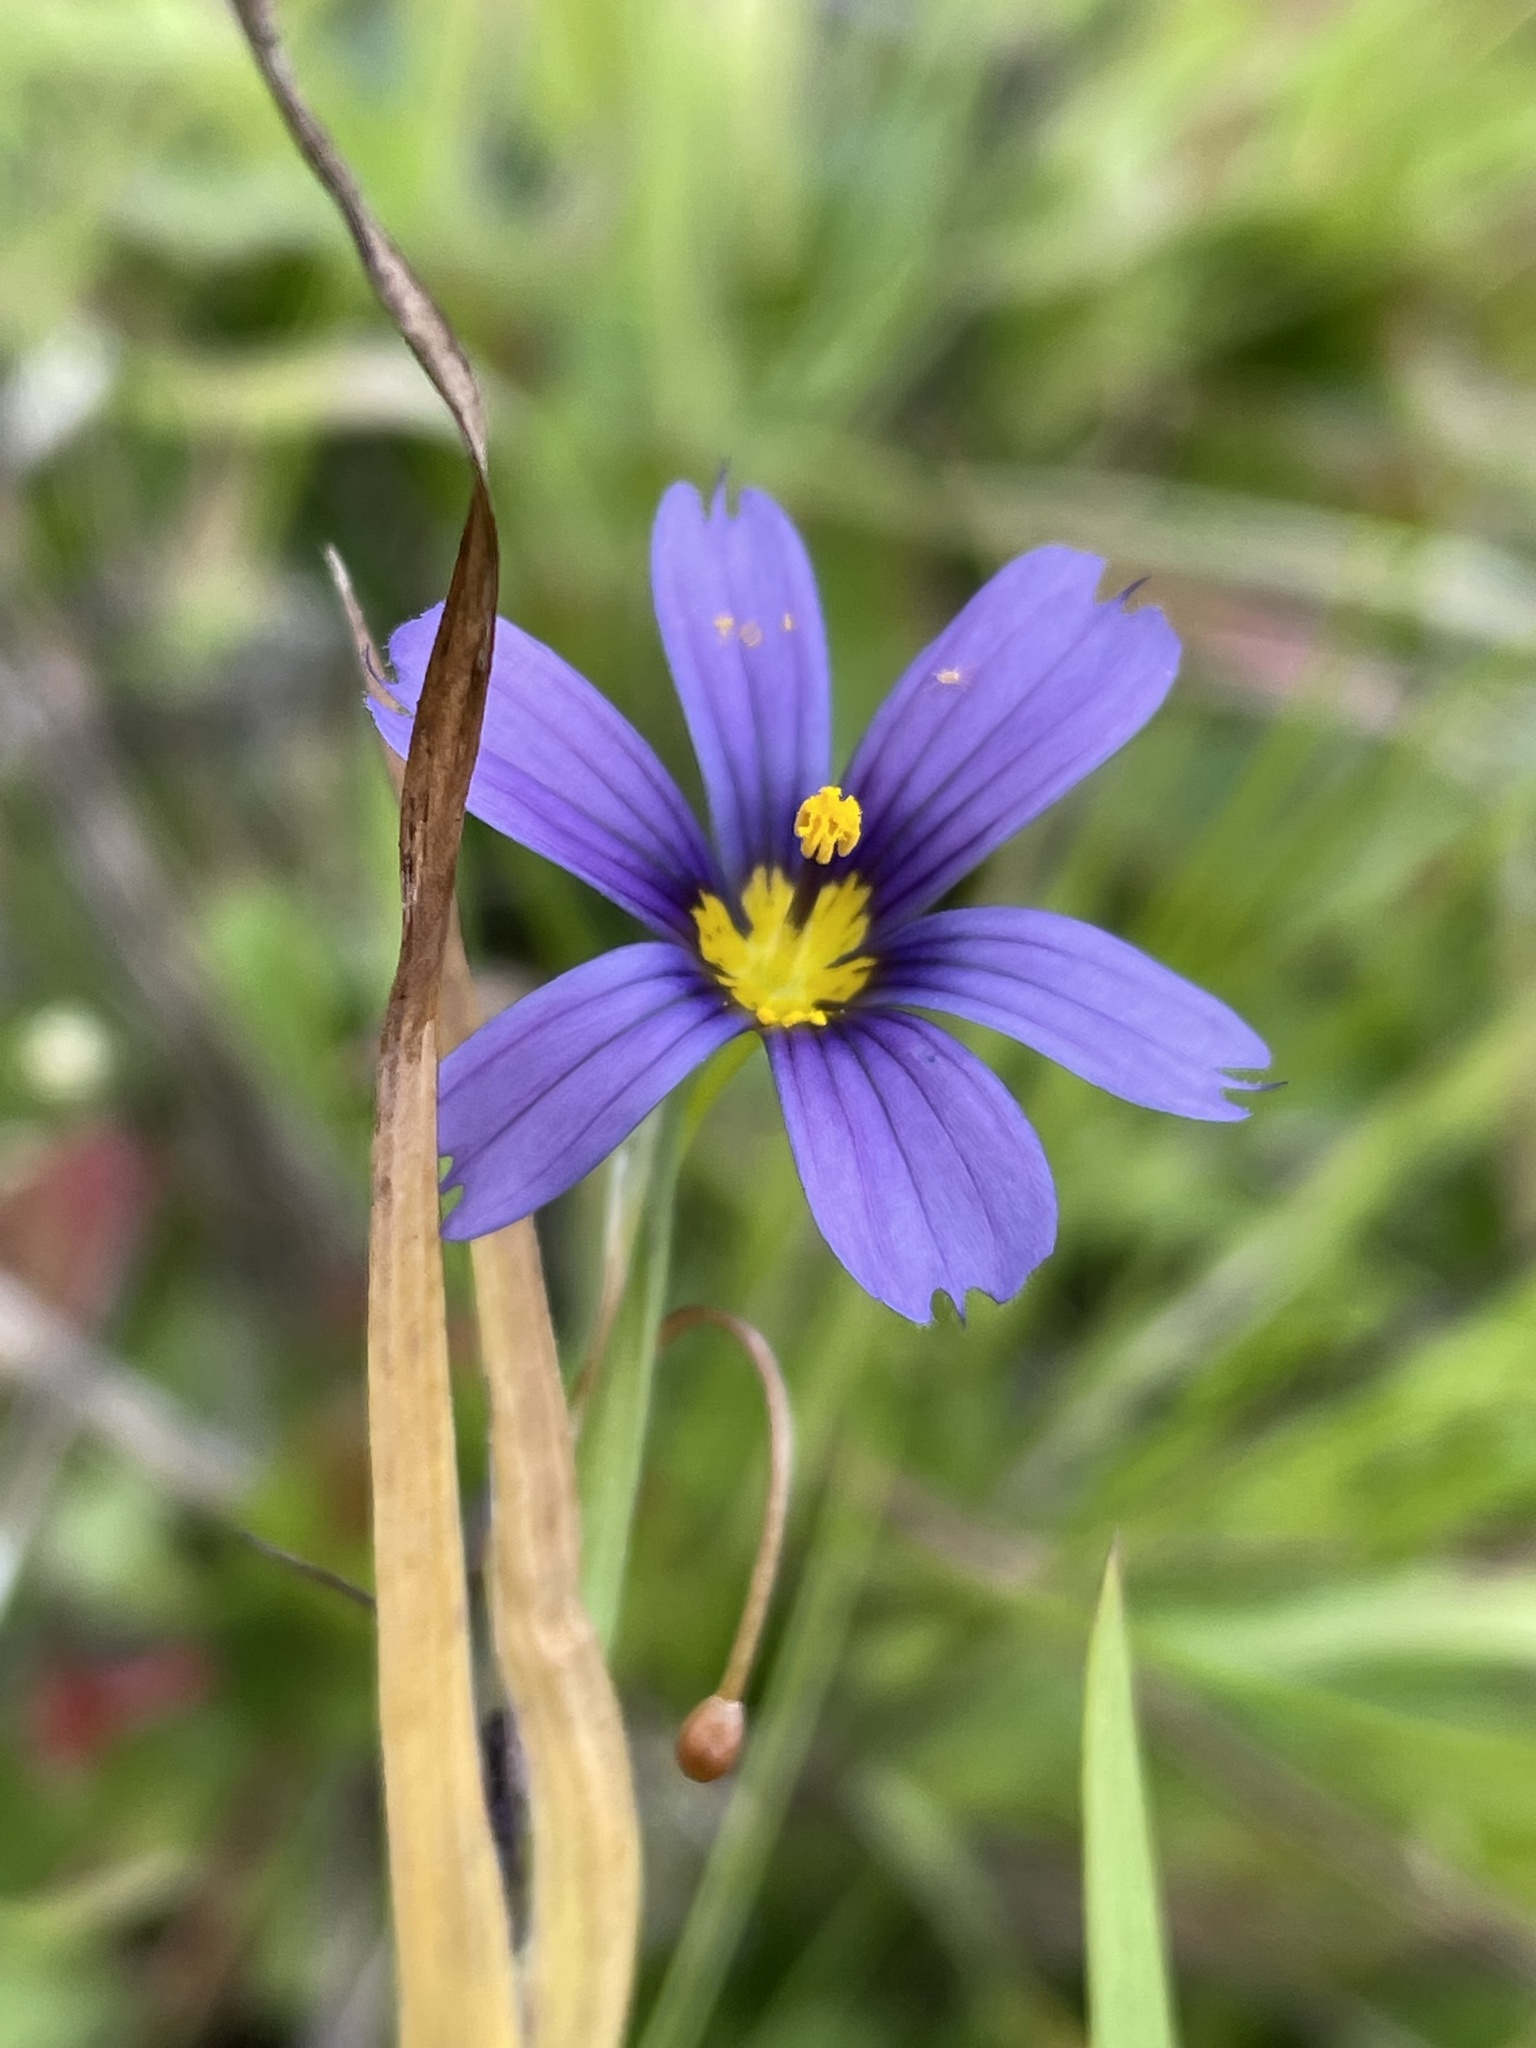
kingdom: Plantae
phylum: Tracheophyta
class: Liliopsida
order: Asparagales
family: Iridaceae
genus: Sisyrinchium
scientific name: Sisyrinchium bellum
